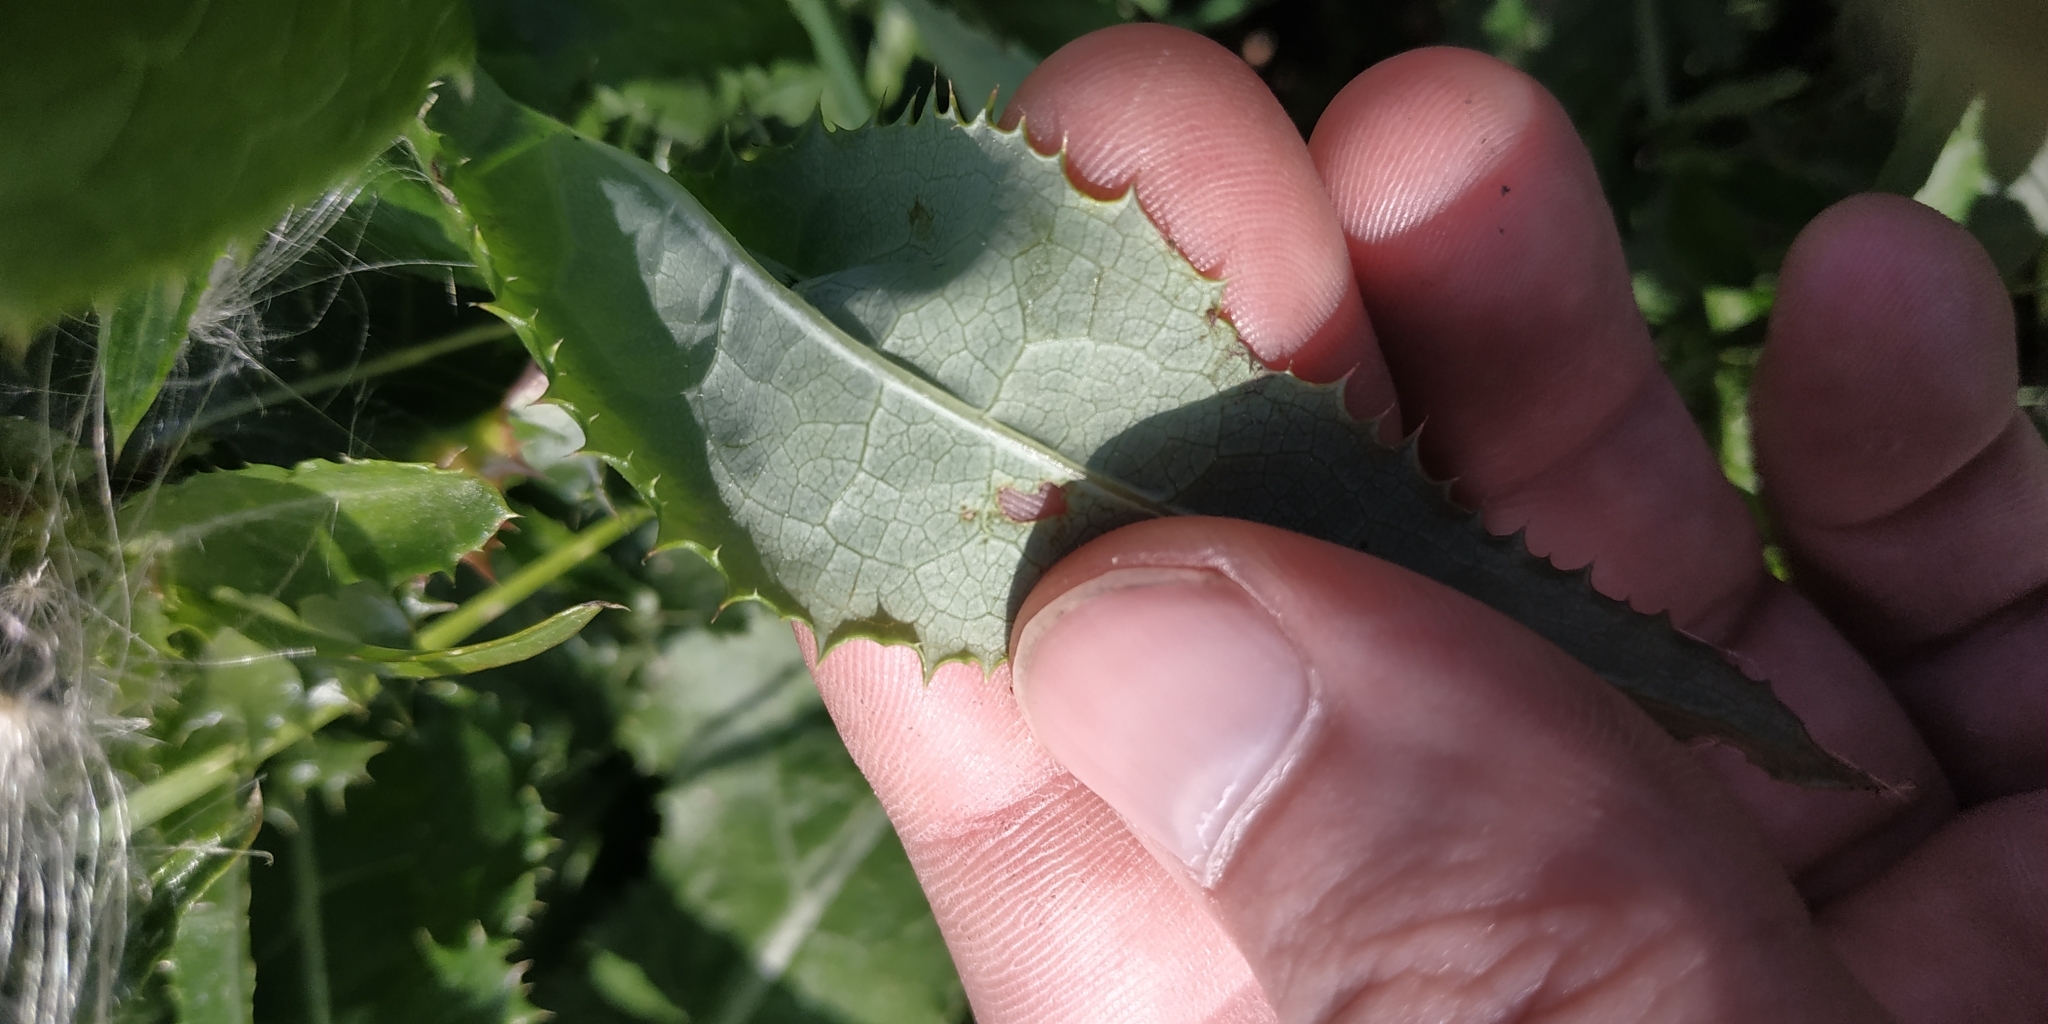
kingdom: Plantae
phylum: Tracheophyta
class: Magnoliopsida
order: Asterales
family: Asteraceae
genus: Sonchus
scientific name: Sonchus arvensis
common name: Perennial sow-thistle
